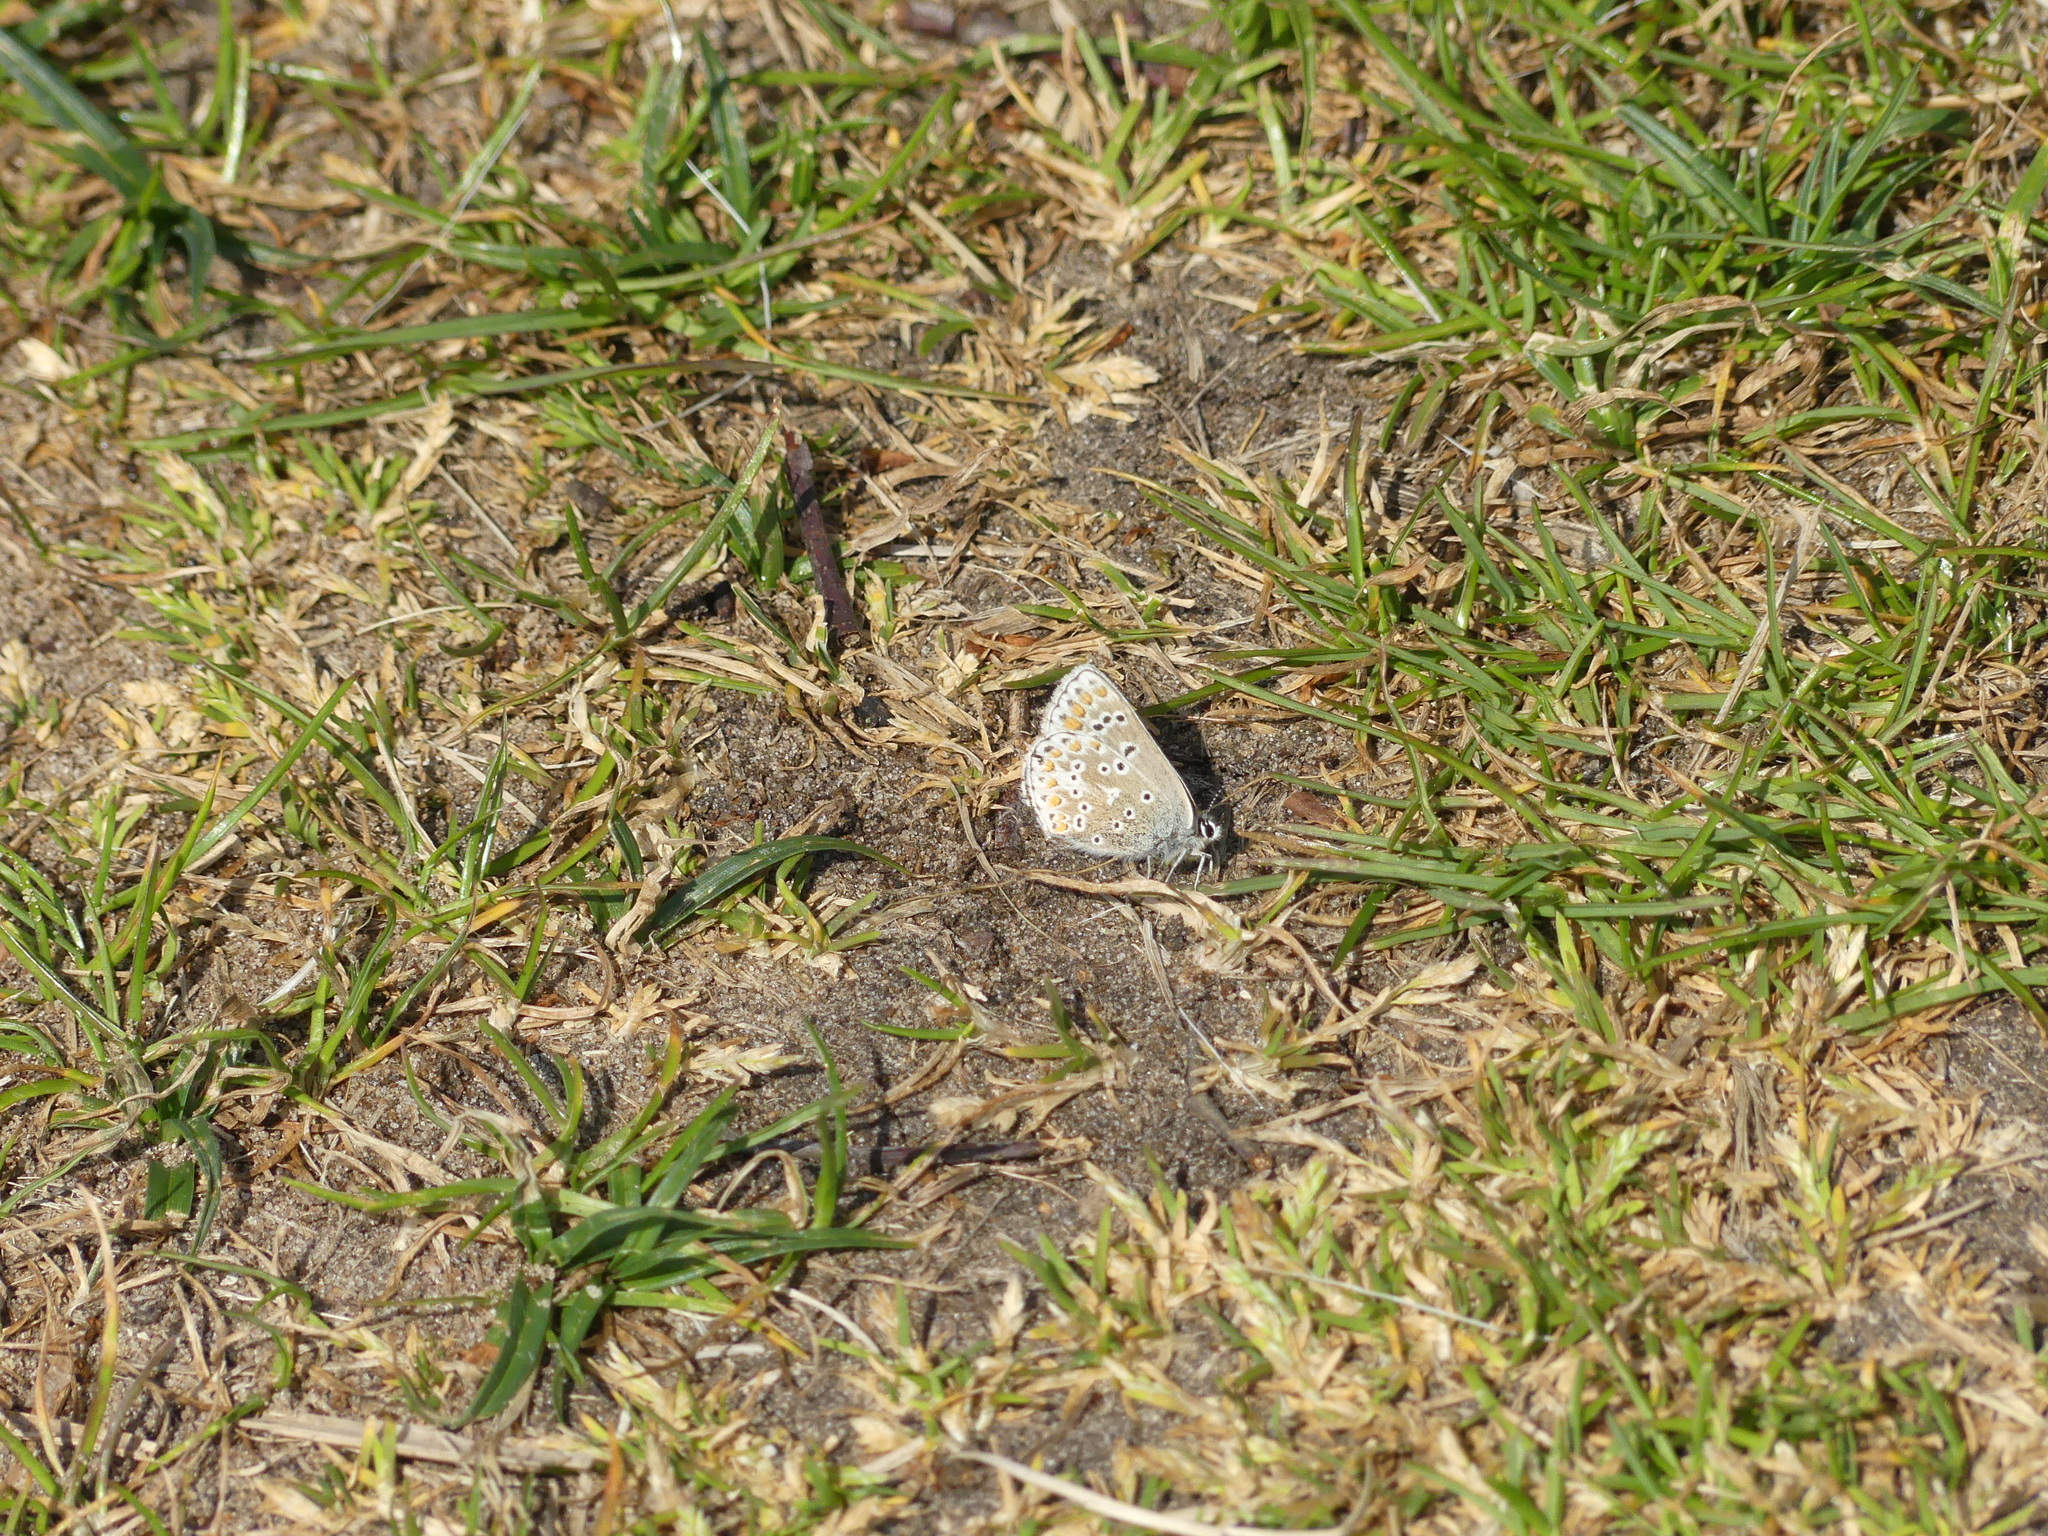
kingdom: Animalia
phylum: Arthropoda
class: Insecta
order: Lepidoptera
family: Lycaenidae
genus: Aricia
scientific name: Aricia agestis
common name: Brown argus
